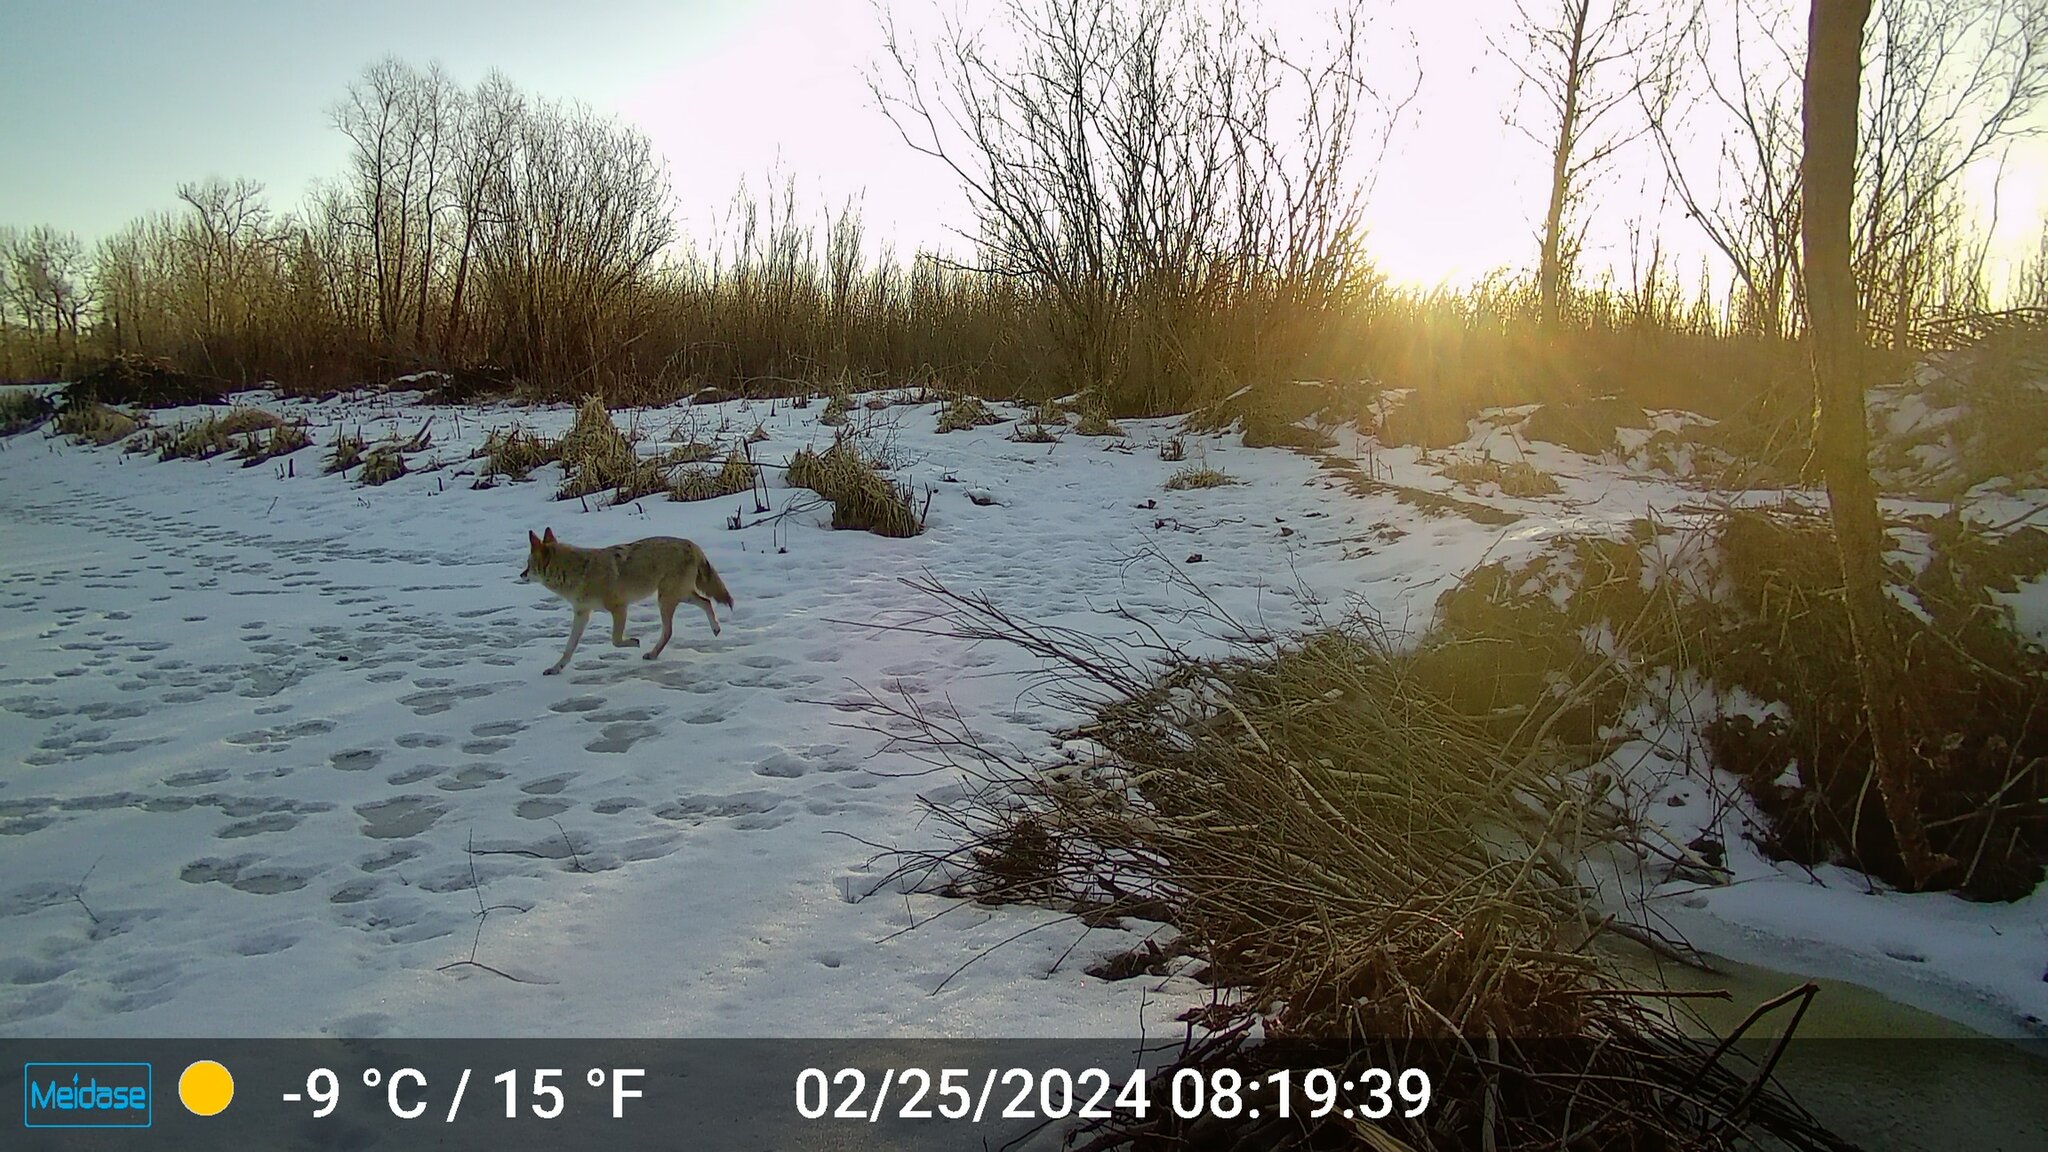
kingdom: Animalia
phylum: Chordata
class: Mammalia
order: Carnivora
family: Canidae
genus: Canis
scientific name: Canis latrans
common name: Coyote
